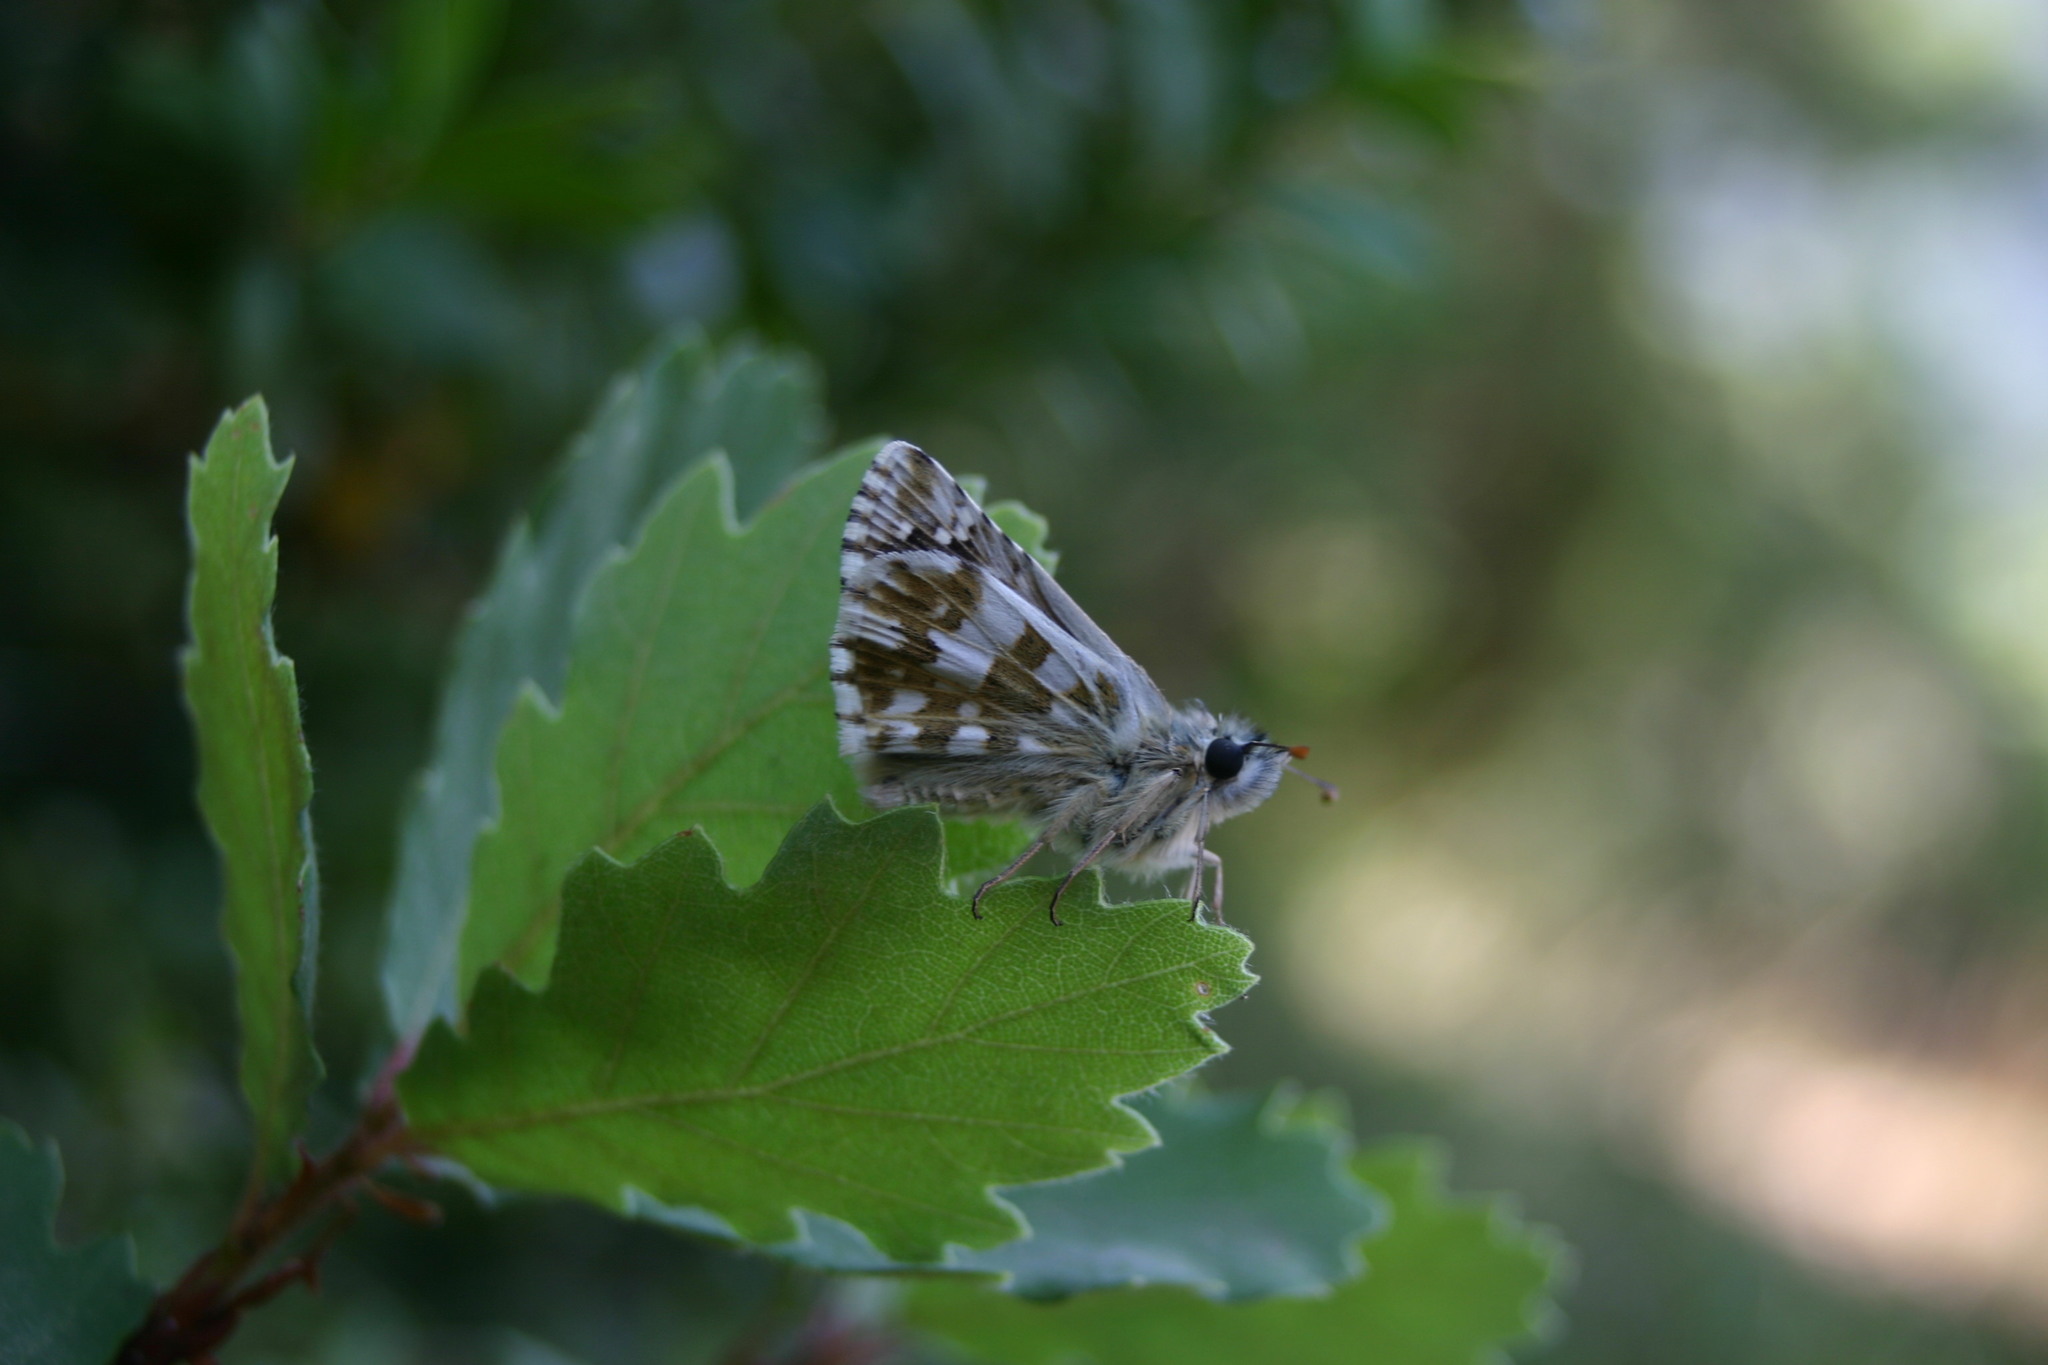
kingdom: Animalia
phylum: Arthropoda
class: Insecta
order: Lepidoptera
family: Hesperiidae
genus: Pyrgus
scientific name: Pyrgus armoricanus
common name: Oberthür's grizzled skipper
